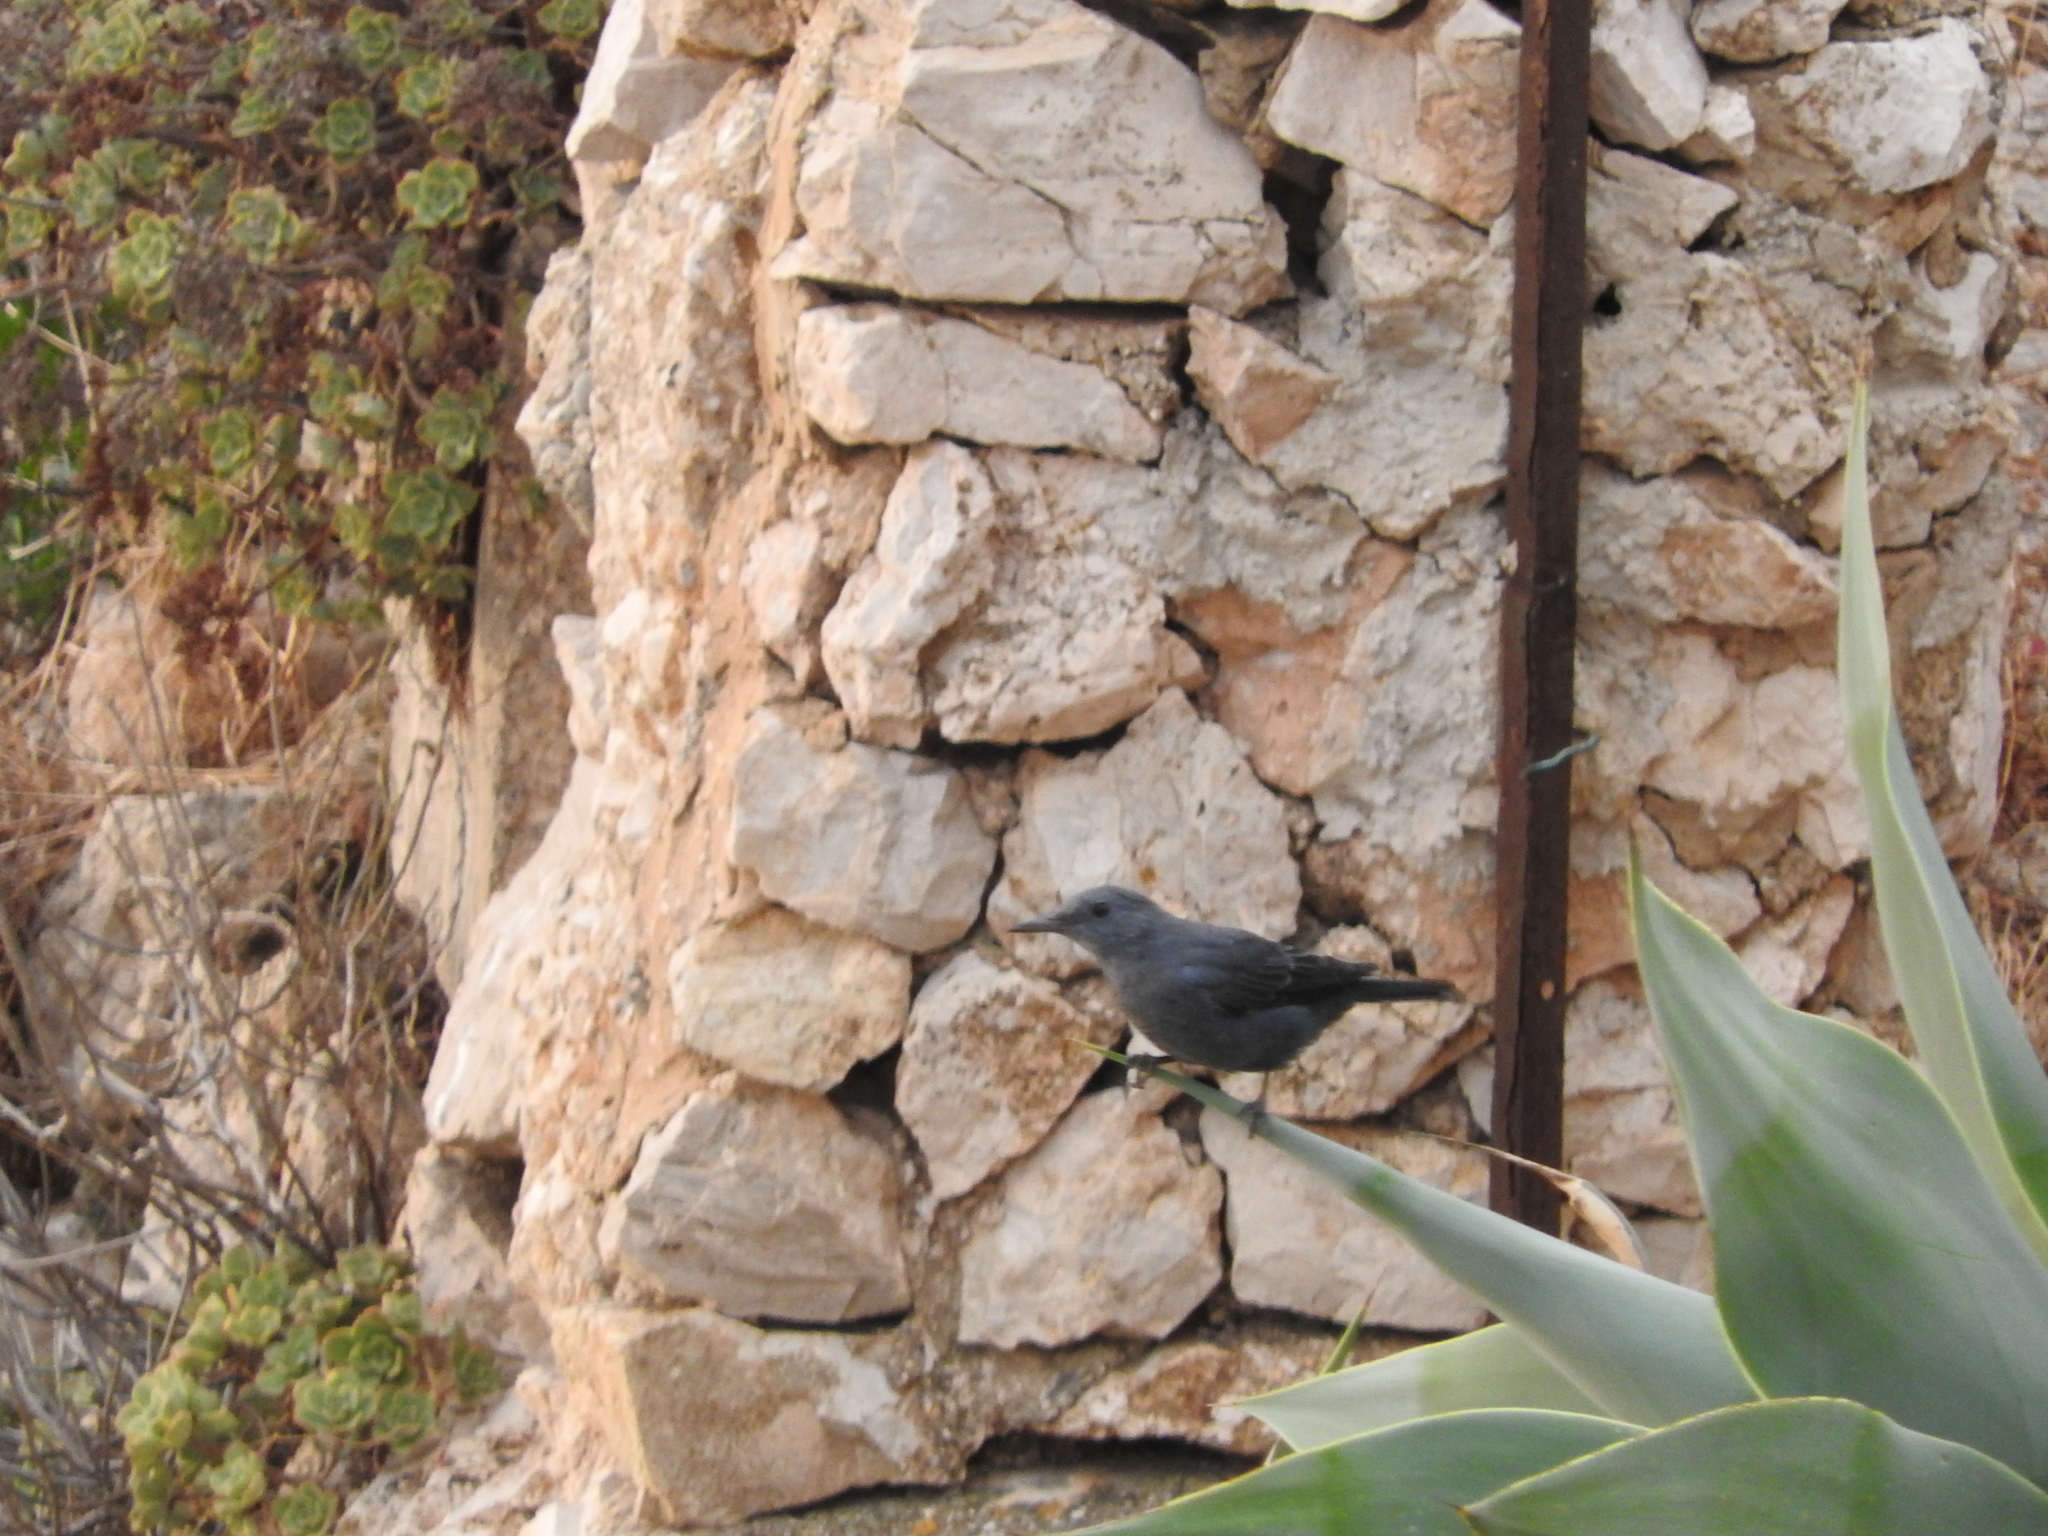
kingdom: Animalia
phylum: Chordata
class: Aves
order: Passeriformes
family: Muscicapidae
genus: Monticola
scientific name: Monticola solitarius
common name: Blue rock thrush
